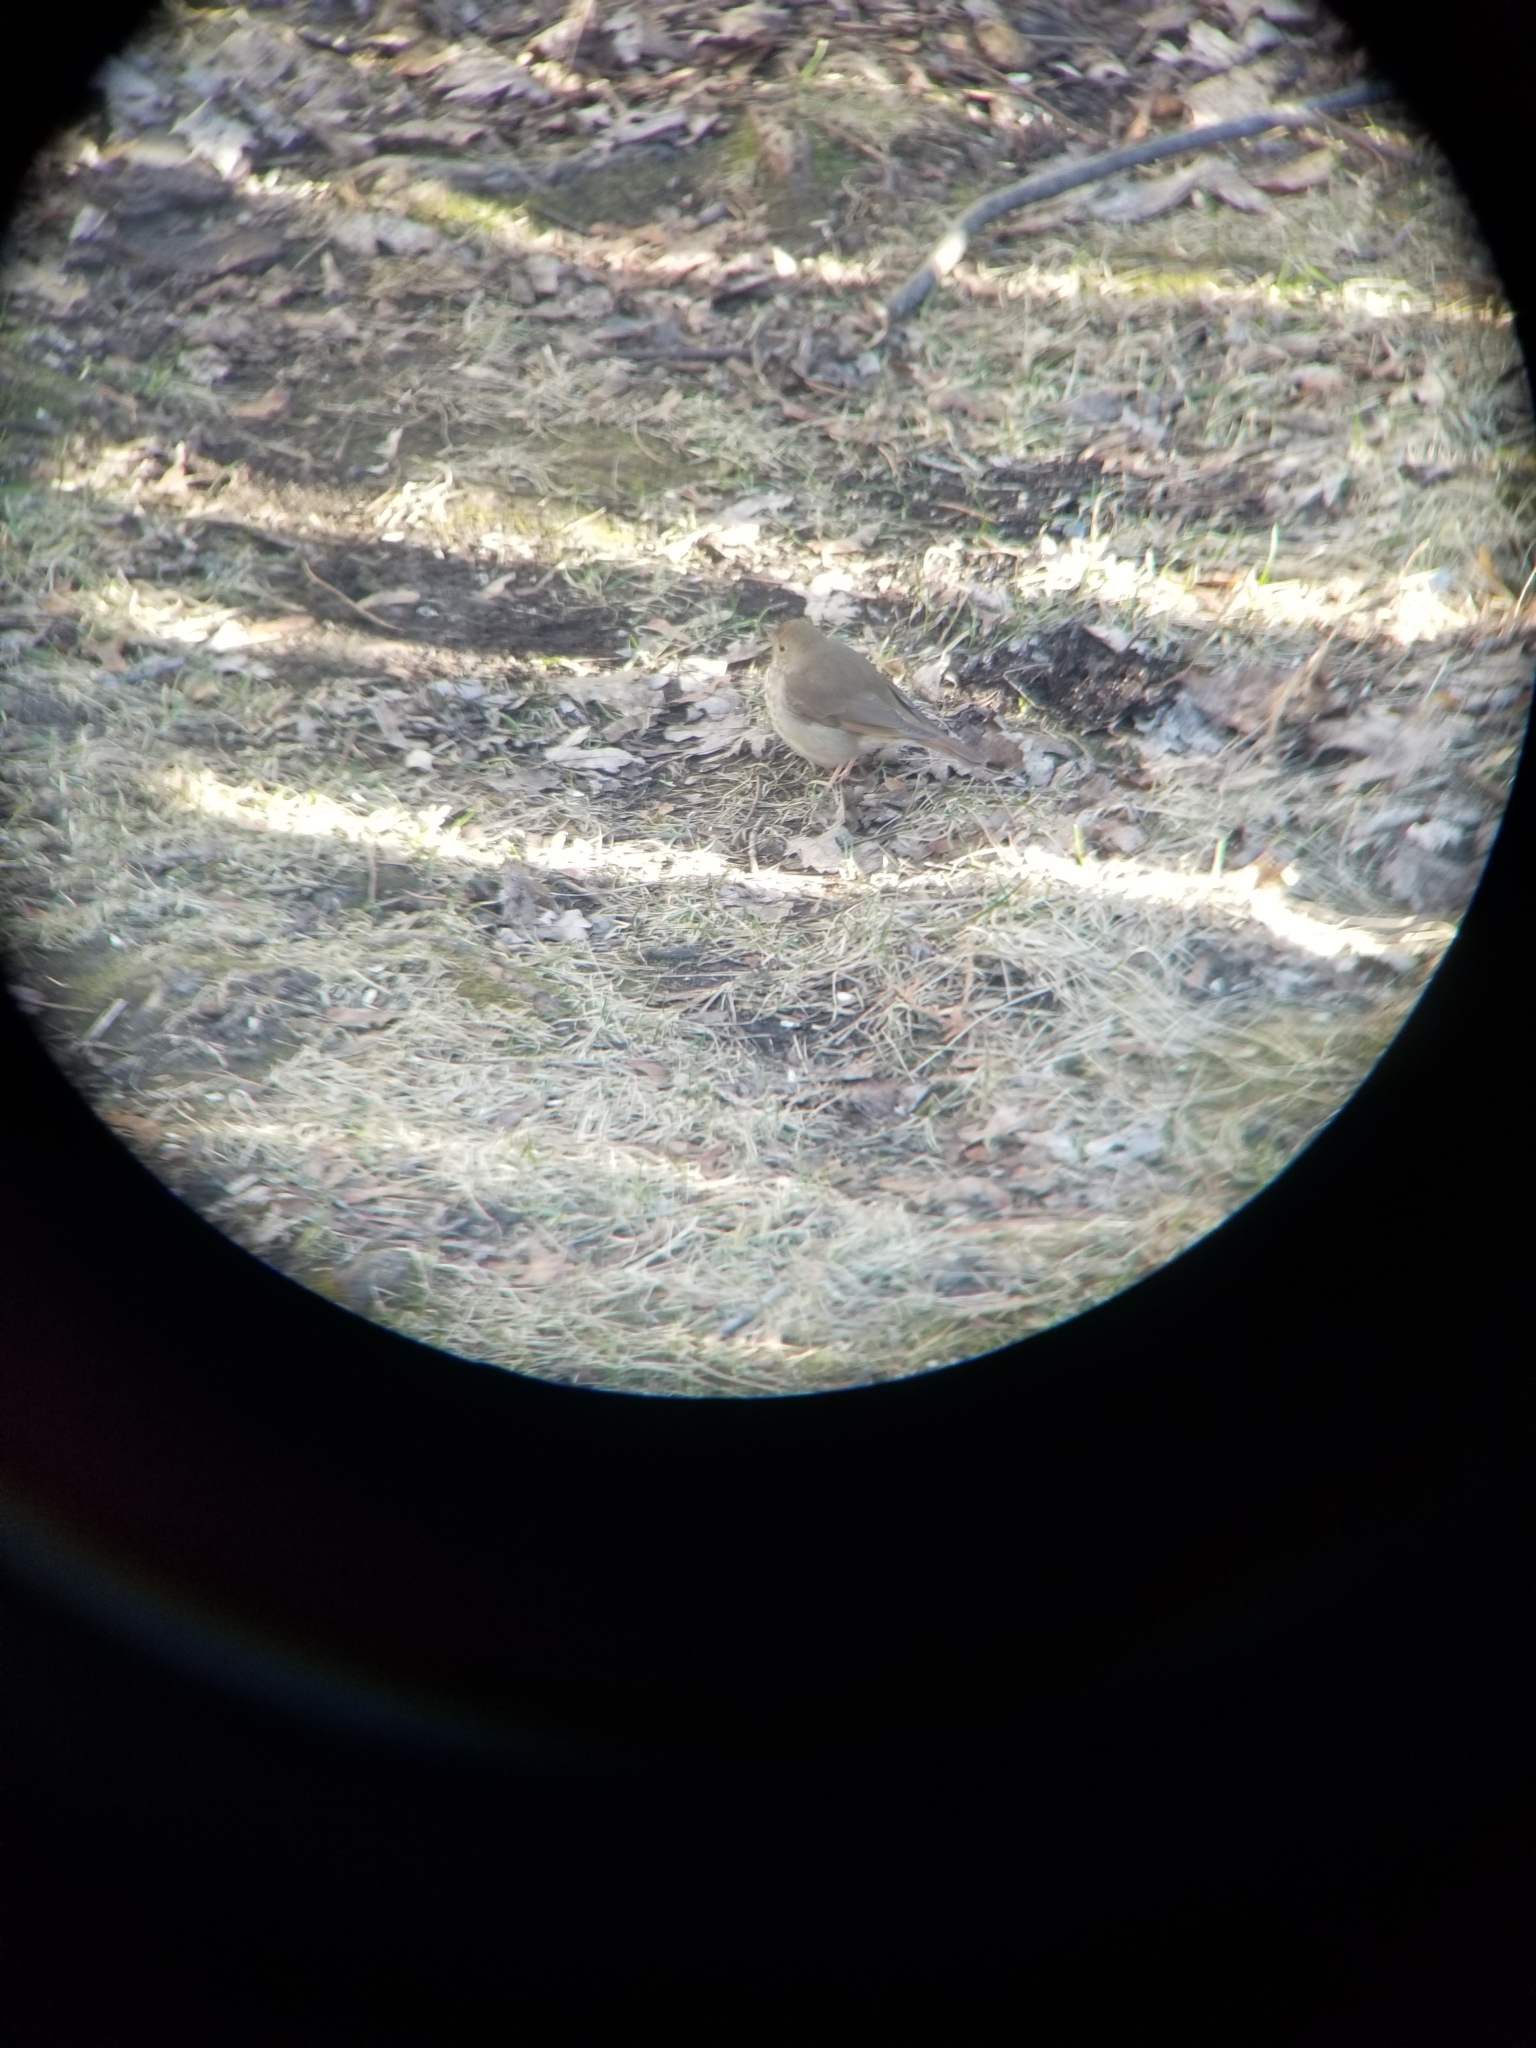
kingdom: Animalia
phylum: Chordata
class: Aves
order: Passeriformes
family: Turdidae
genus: Catharus
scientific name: Catharus guttatus
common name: Hermit thrush
